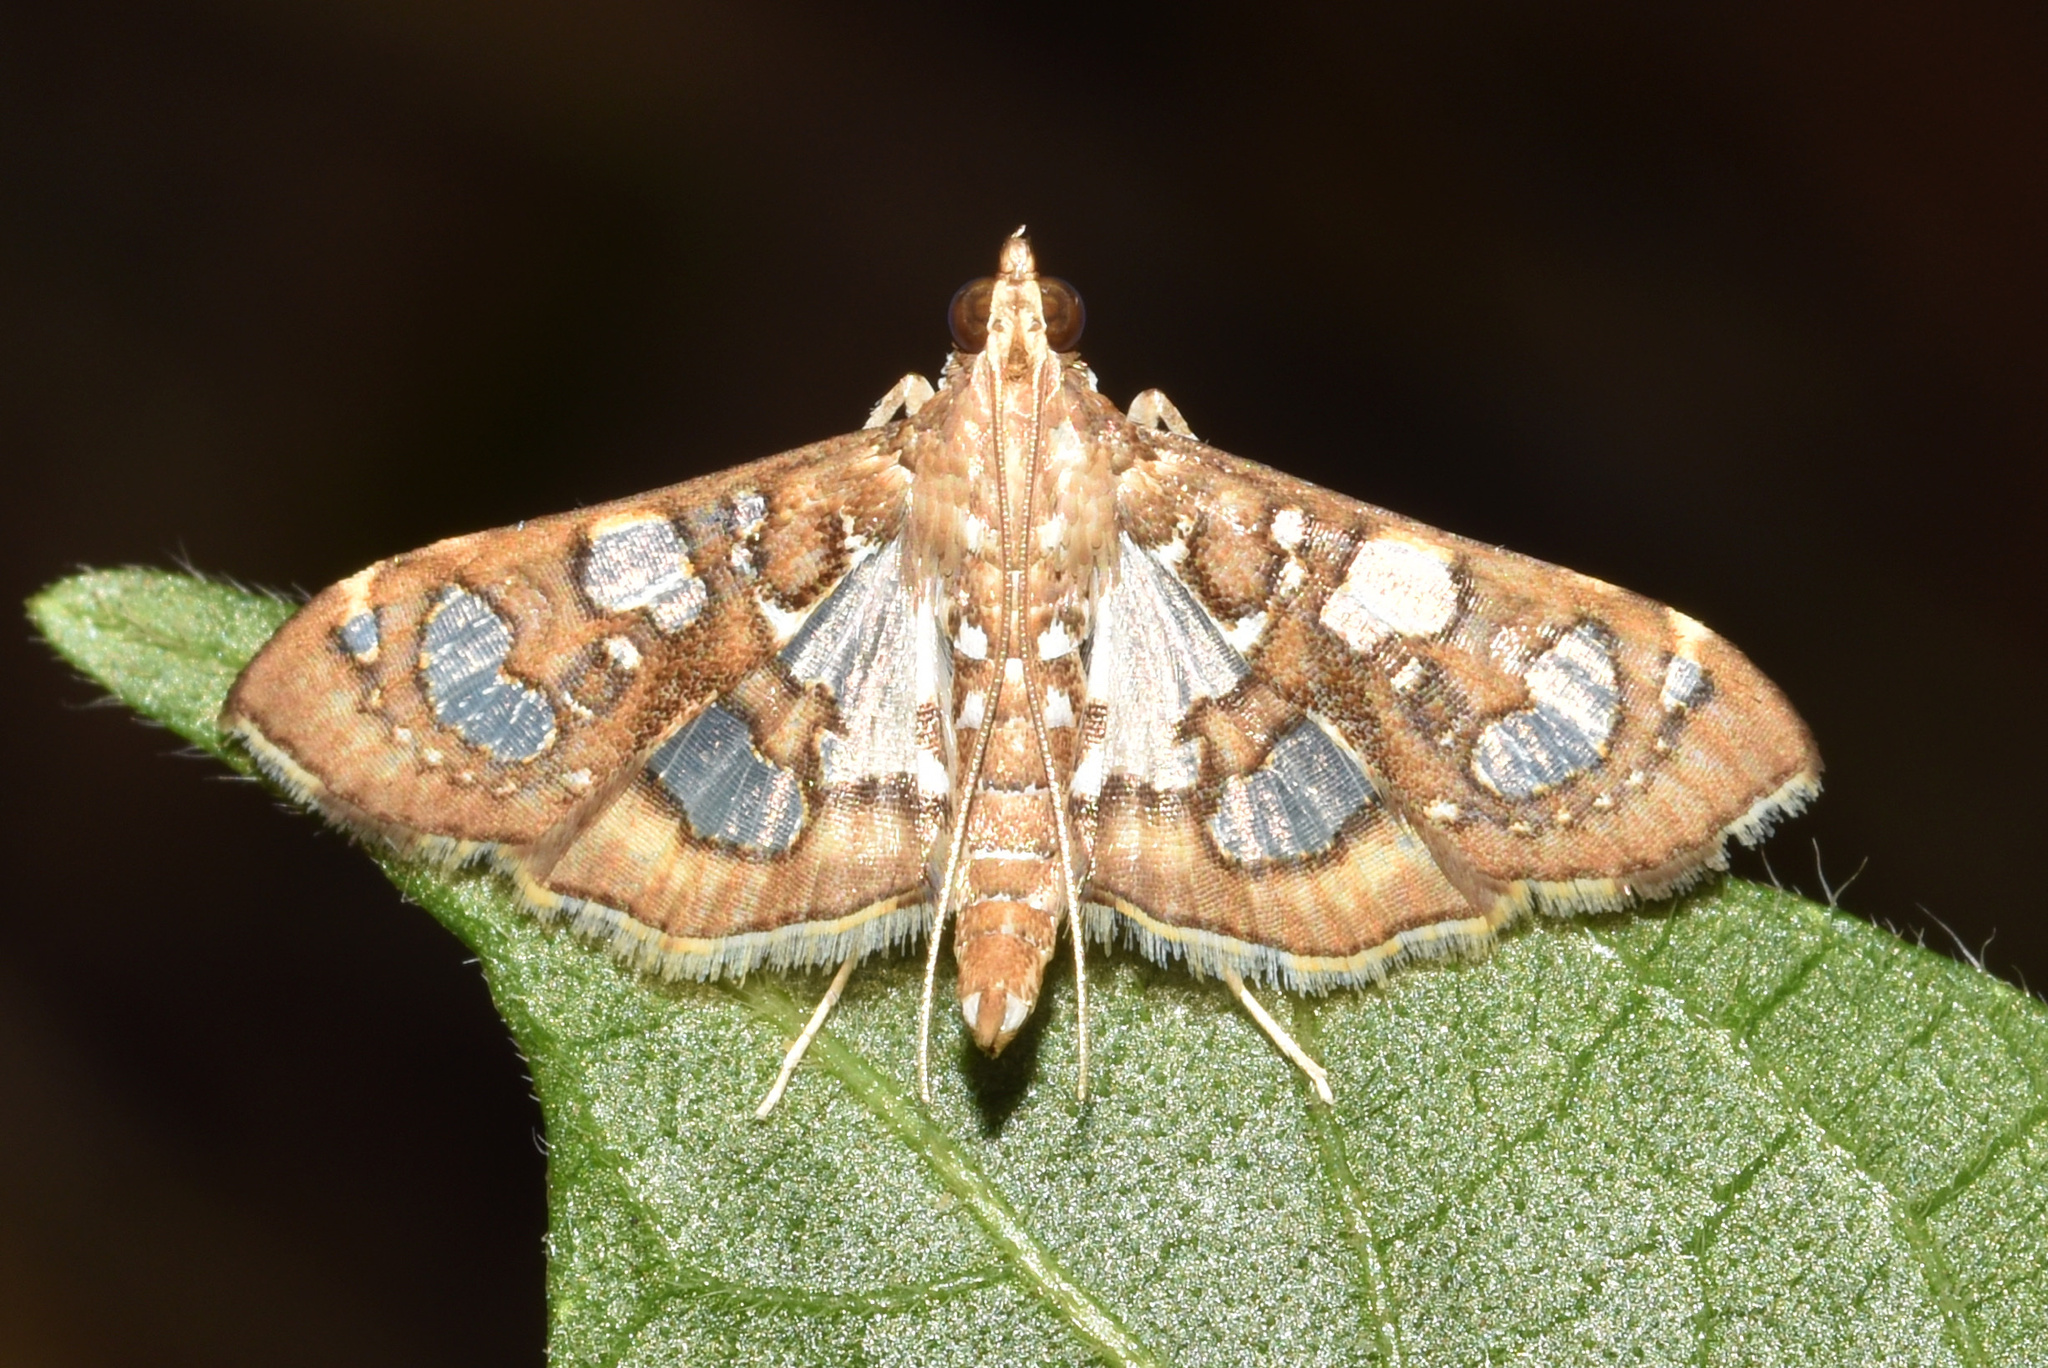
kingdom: Animalia
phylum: Arthropoda
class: Insecta
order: Lepidoptera
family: Crambidae
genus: Nausinoe
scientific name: Nausinoe quadrinalis
